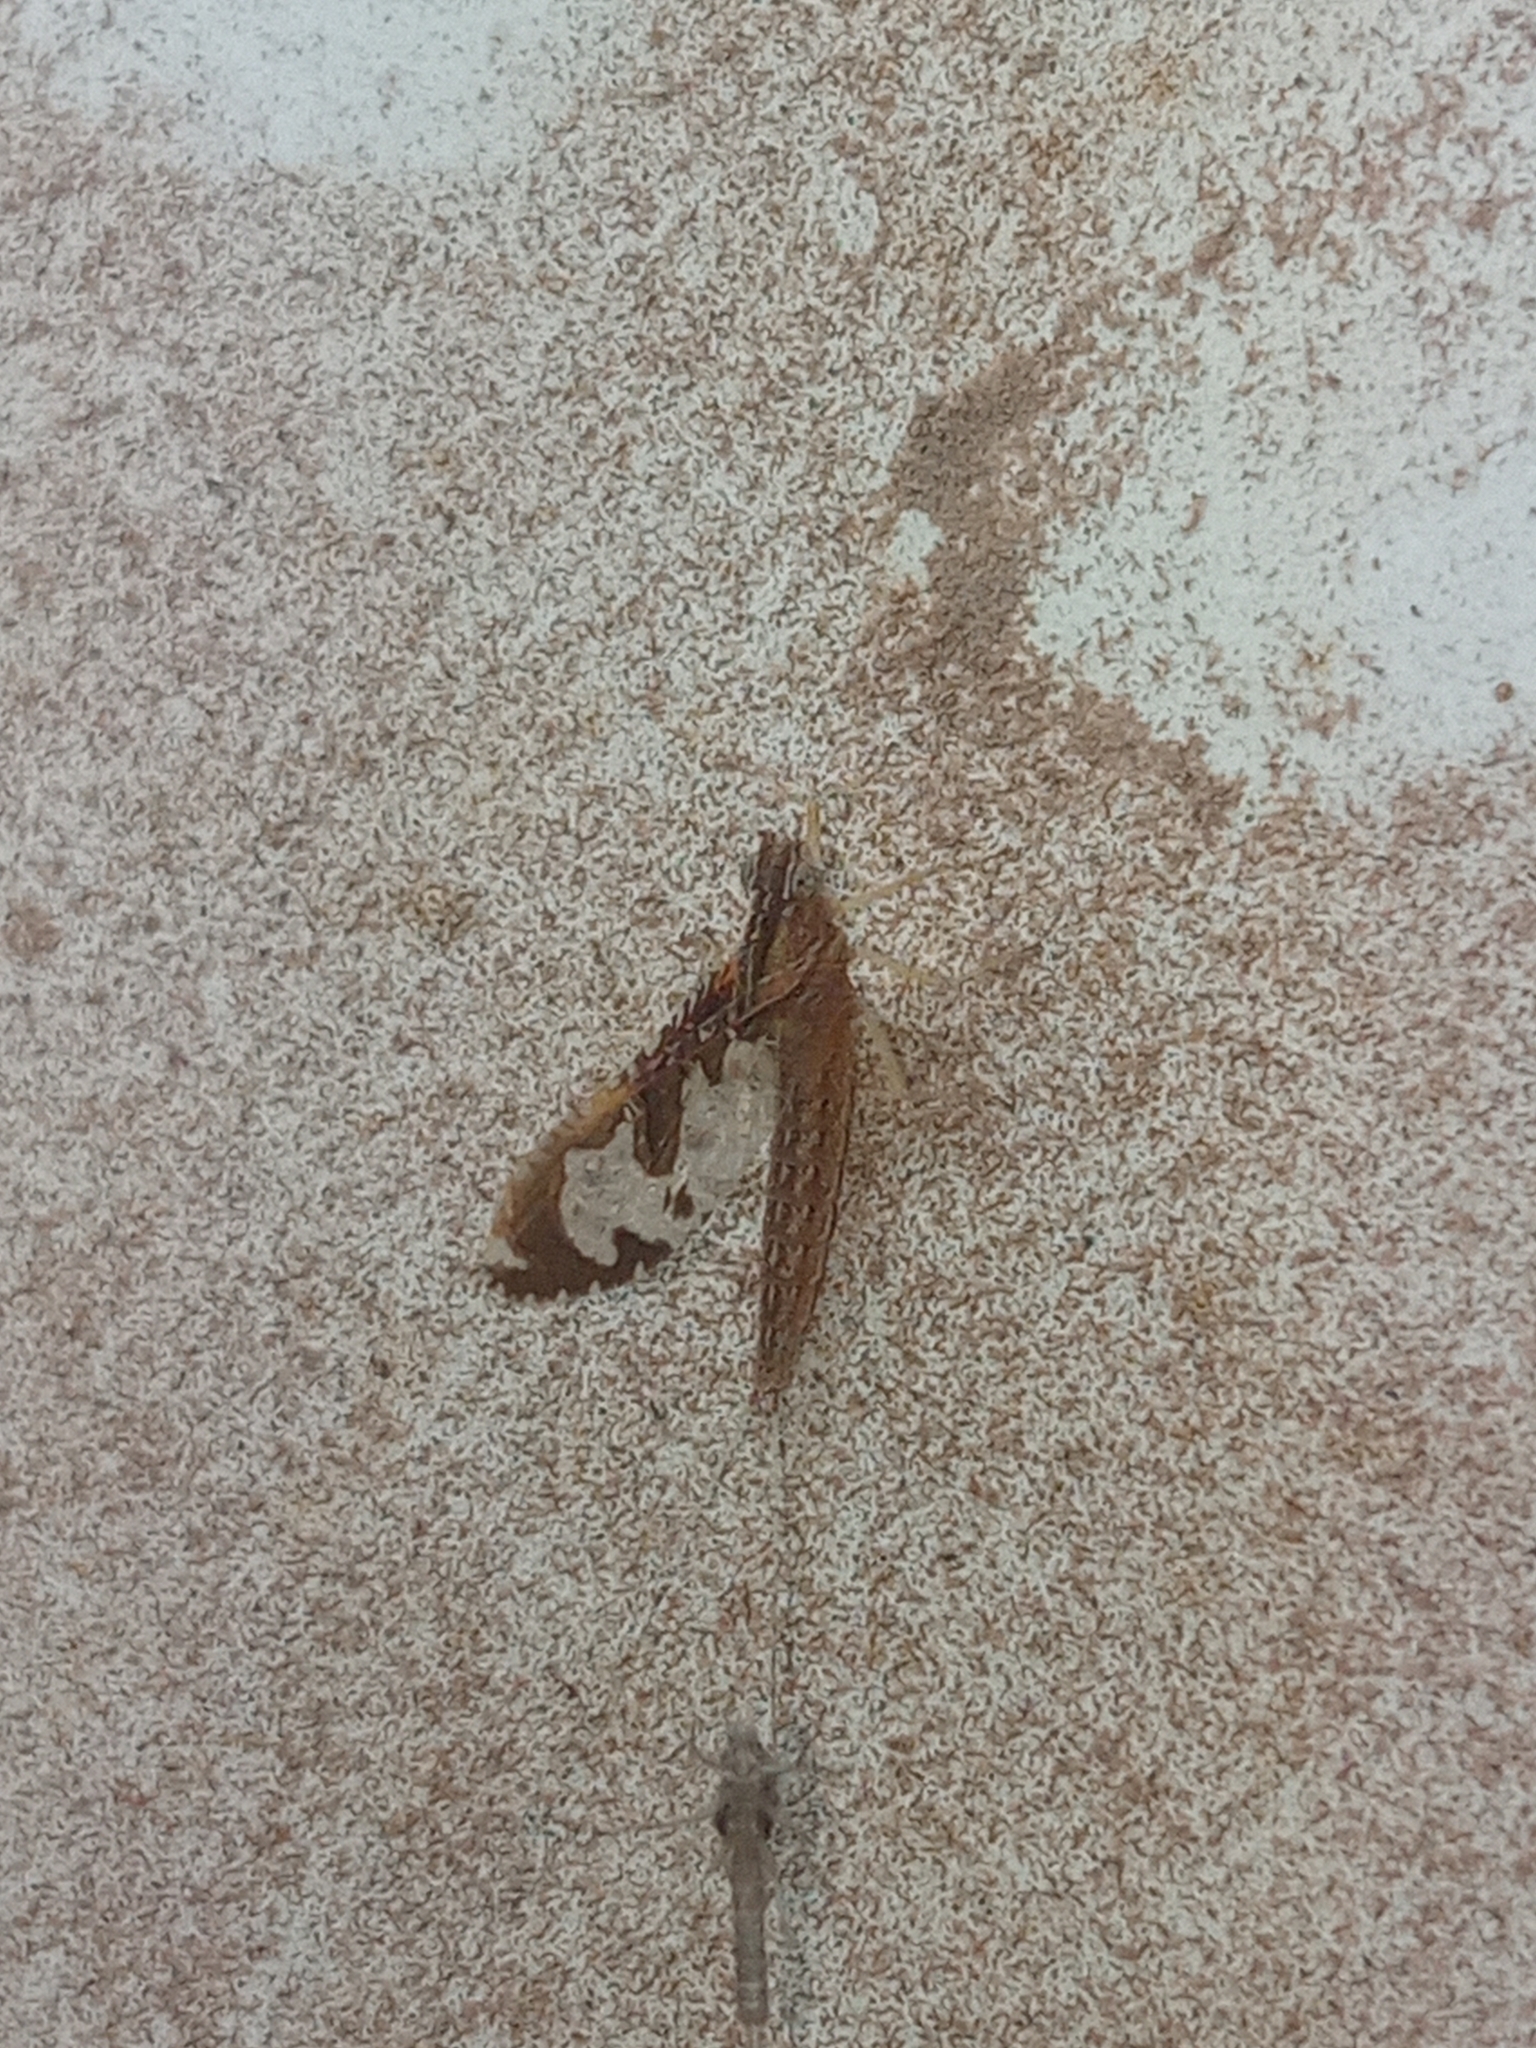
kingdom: Animalia
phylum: Arthropoda
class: Insecta
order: Ephemeroptera
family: Baetidae
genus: Callibaetis
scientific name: Callibaetis distinctus
